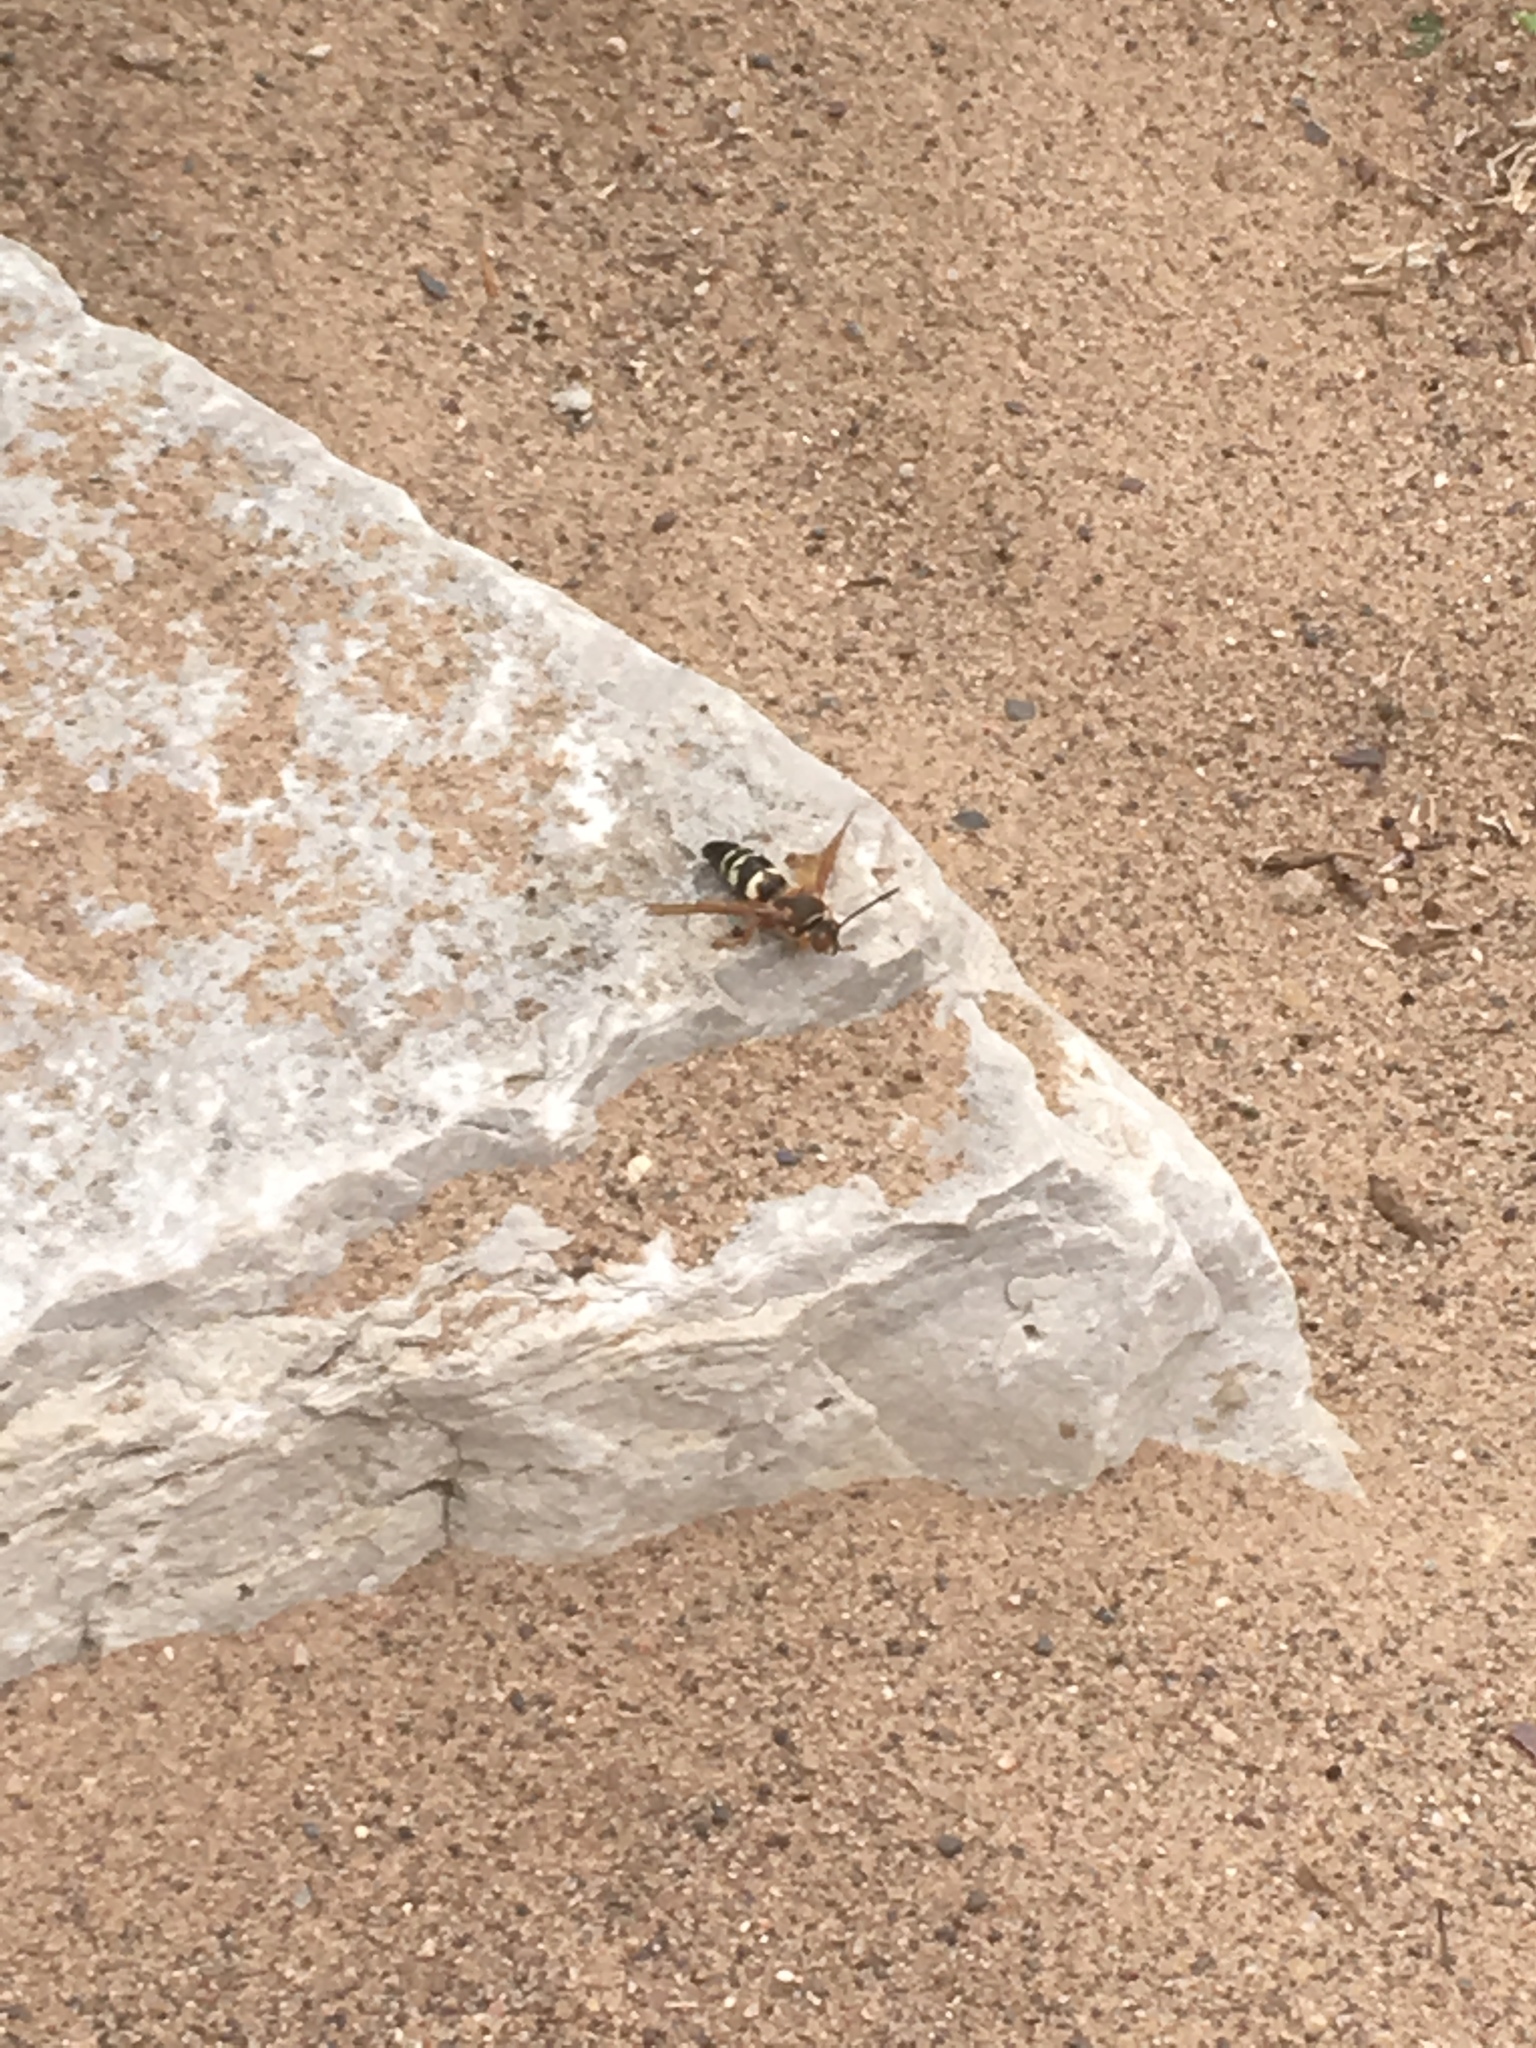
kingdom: Animalia
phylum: Arthropoda
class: Insecta
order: Hymenoptera
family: Crabronidae
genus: Sphecius
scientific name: Sphecius speciosus
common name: Cicada killer
